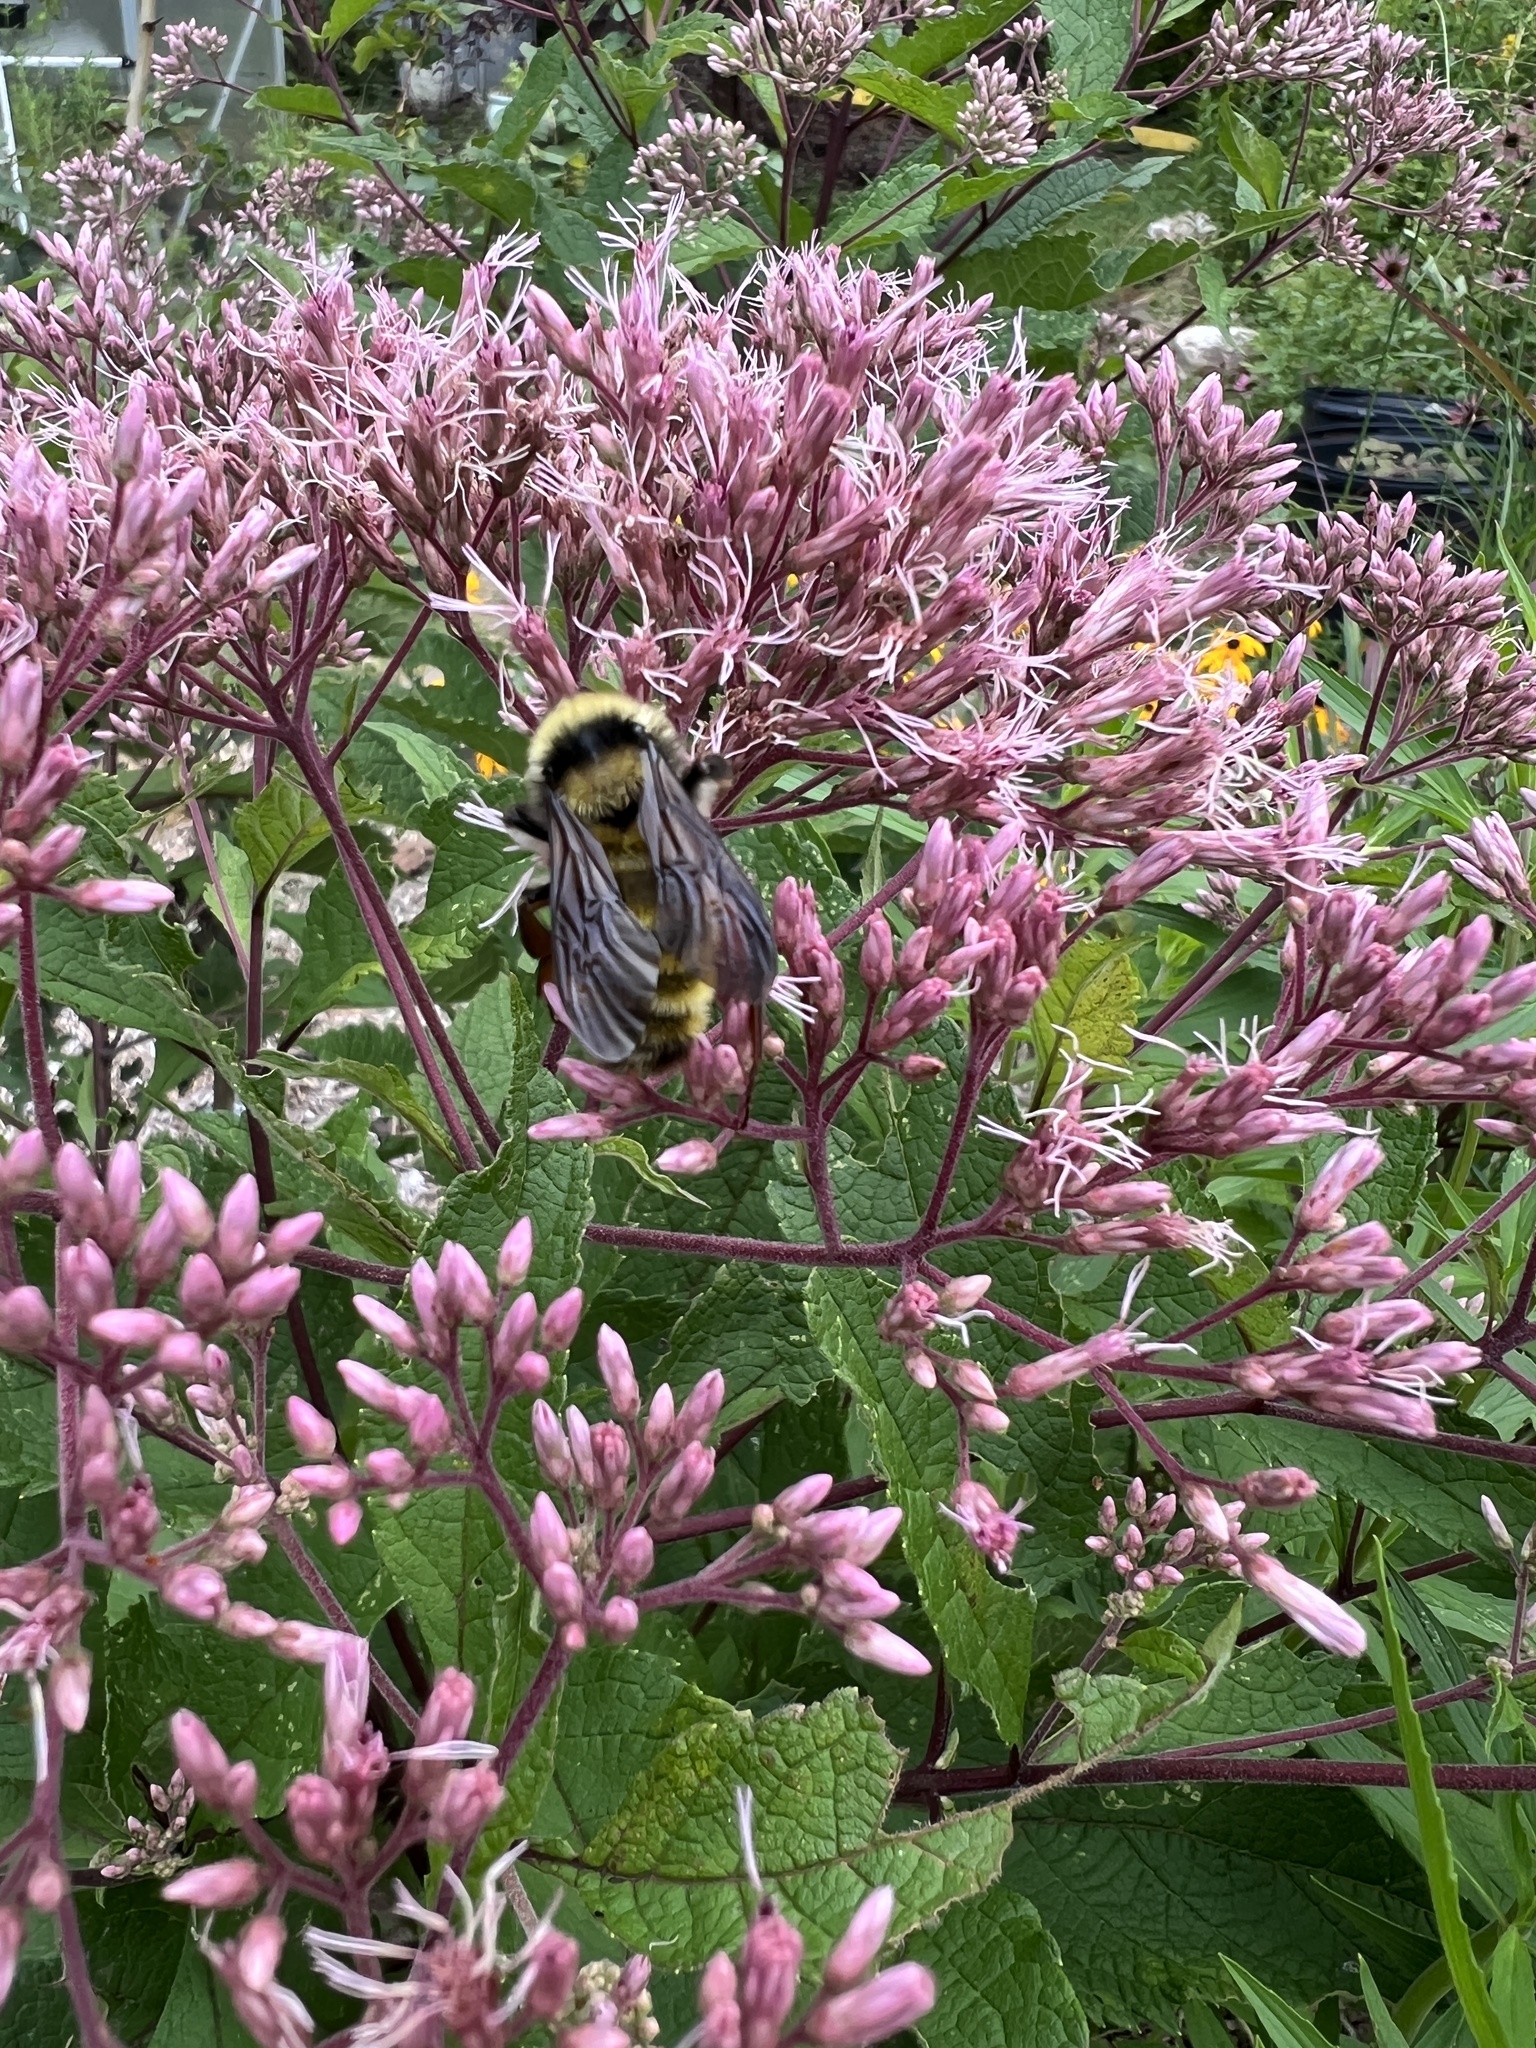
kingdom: Animalia
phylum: Arthropoda
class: Insecta
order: Hymenoptera
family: Apidae
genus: Bombus
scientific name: Bombus pensylvanicus
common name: Bumble bee
